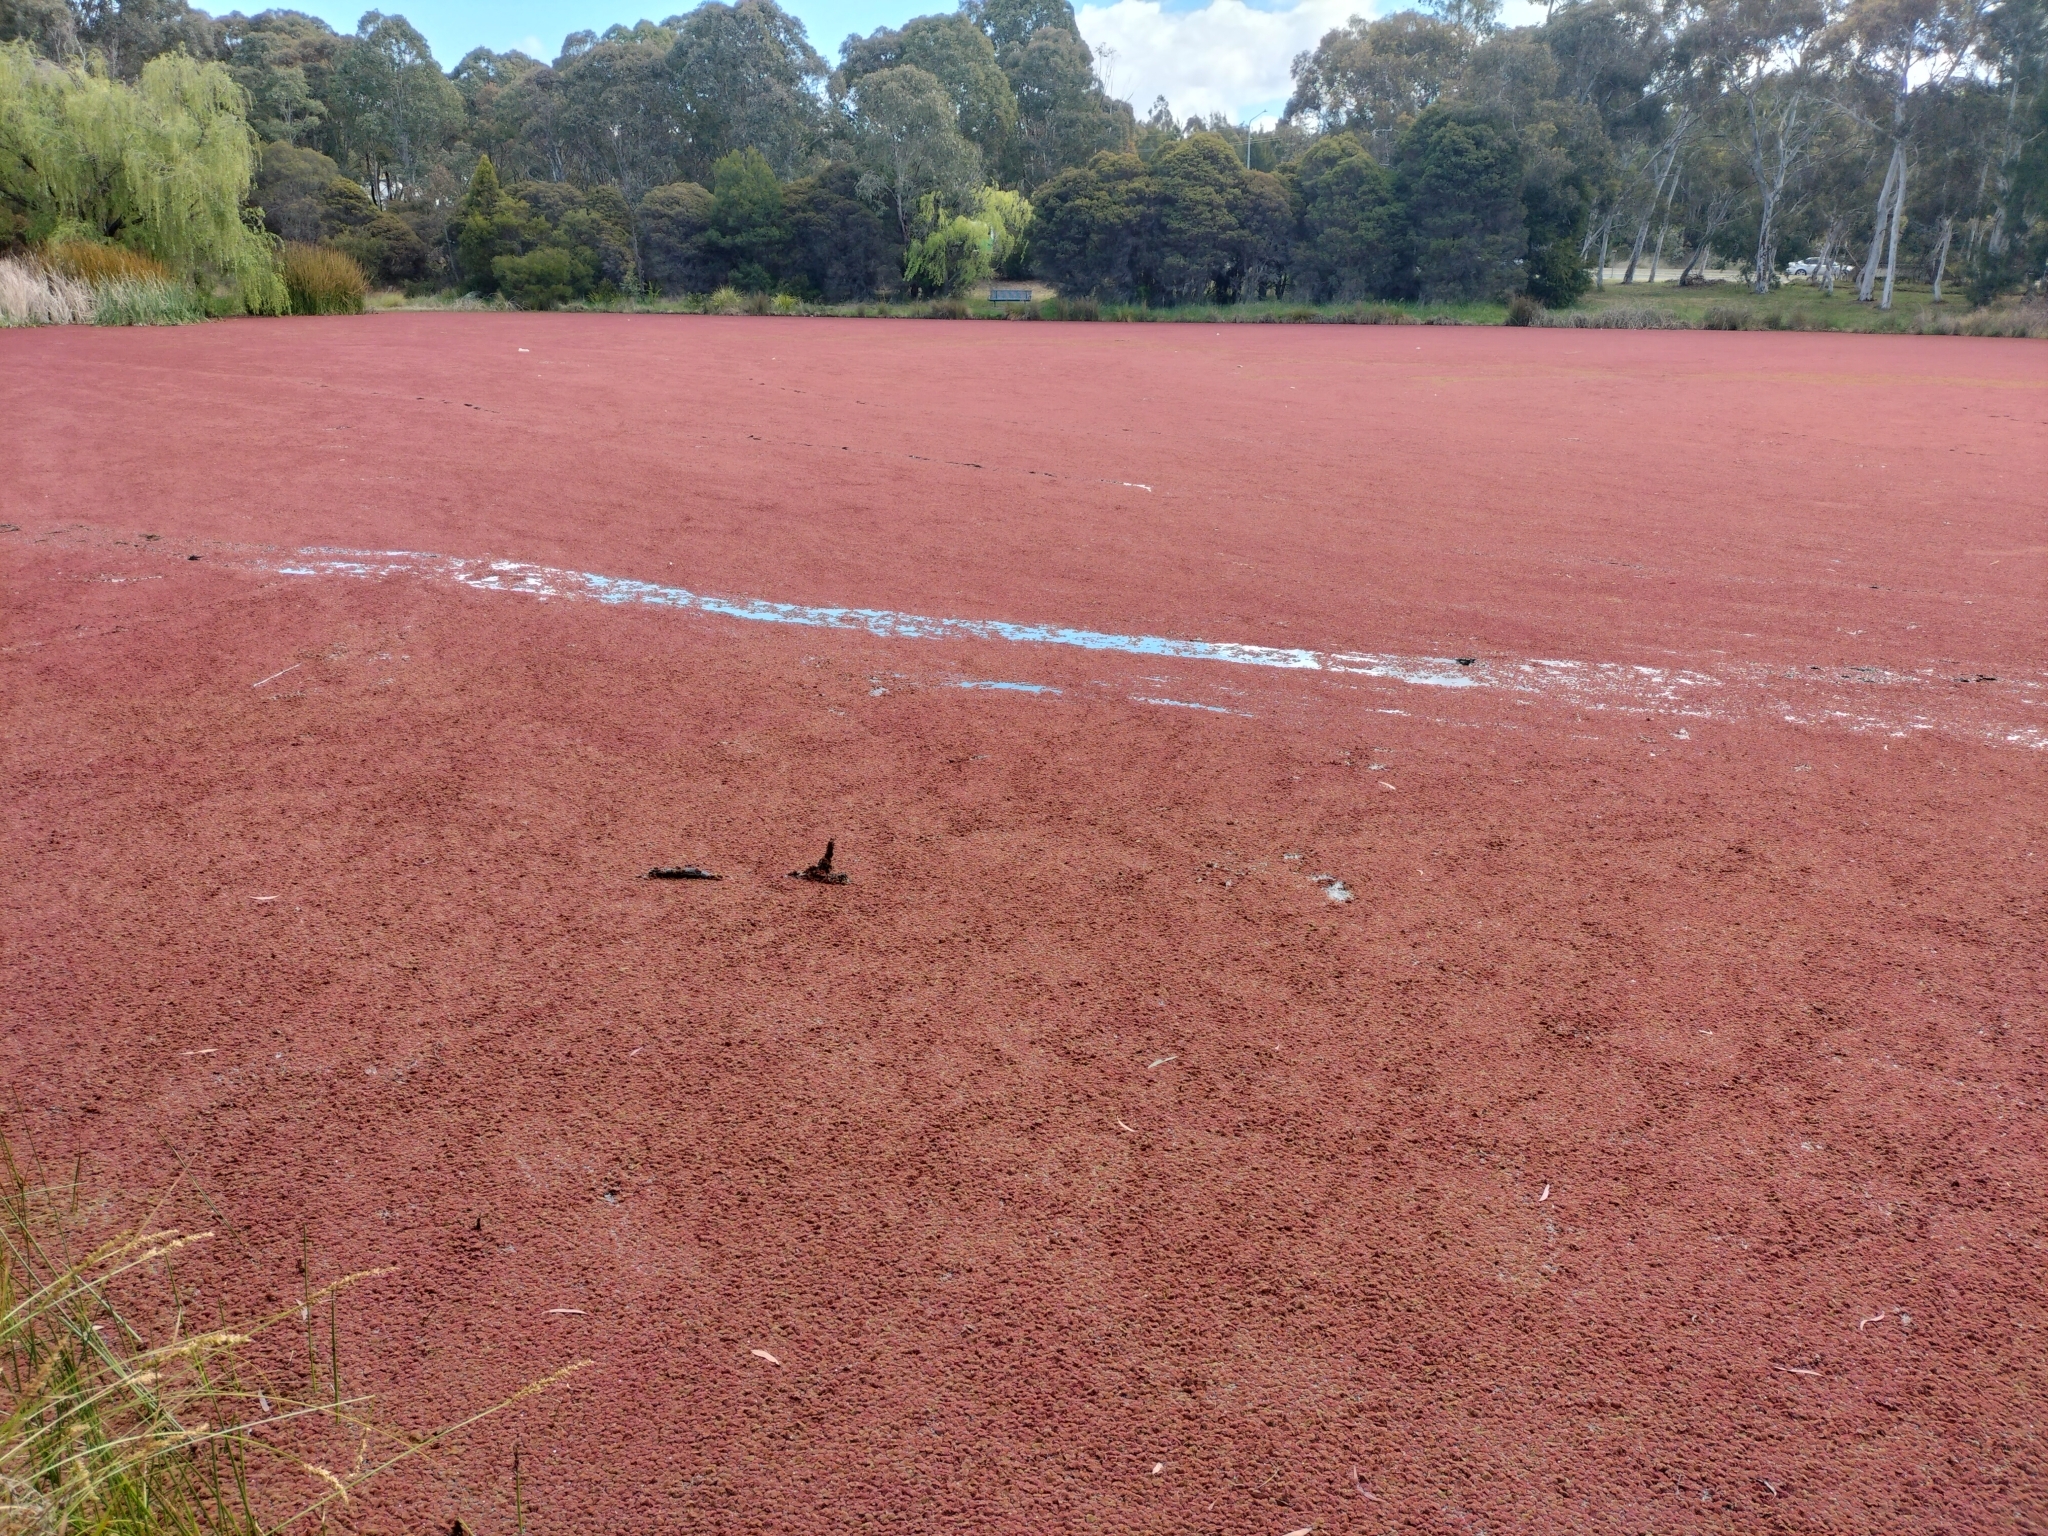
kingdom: Plantae
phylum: Tracheophyta
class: Polypodiopsida
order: Salviniales
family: Salviniaceae
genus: Azolla
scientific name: Azolla pinnata
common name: Ferny azolla
